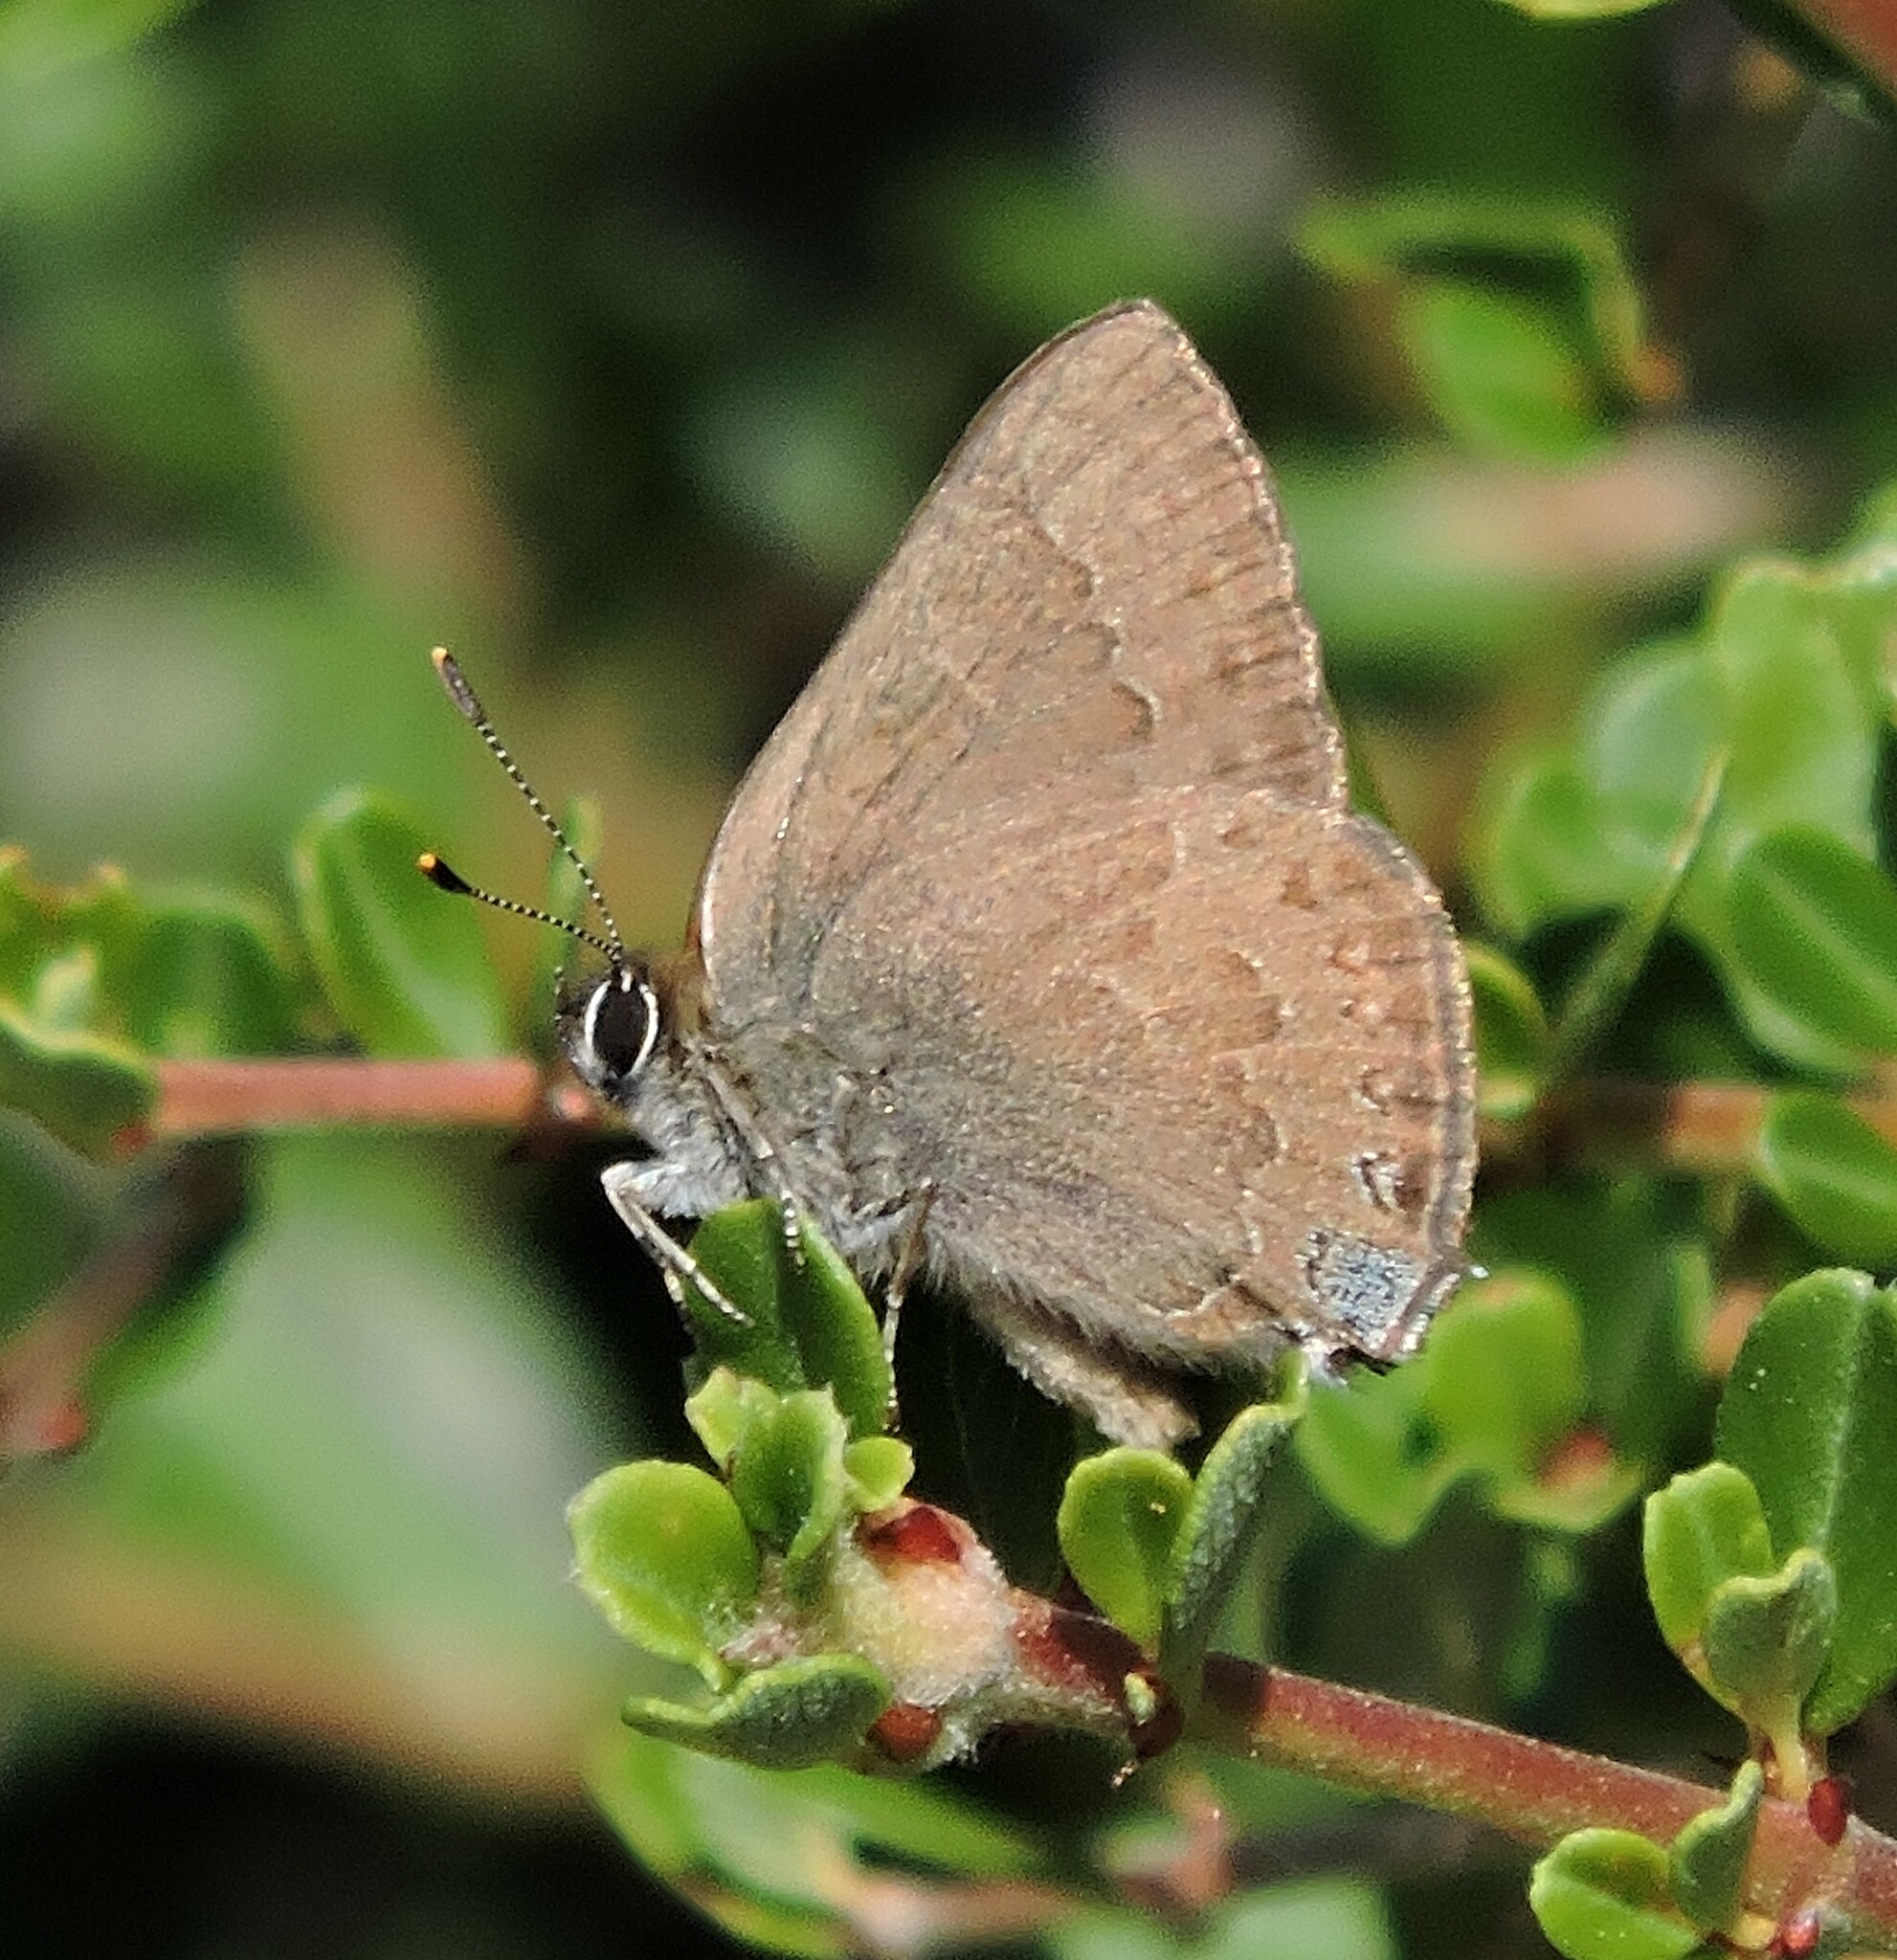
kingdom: Animalia
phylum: Arthropoda
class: Insecta
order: Lepidoptera
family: Lycaenidae
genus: Strymon
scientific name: Strymon saepium
